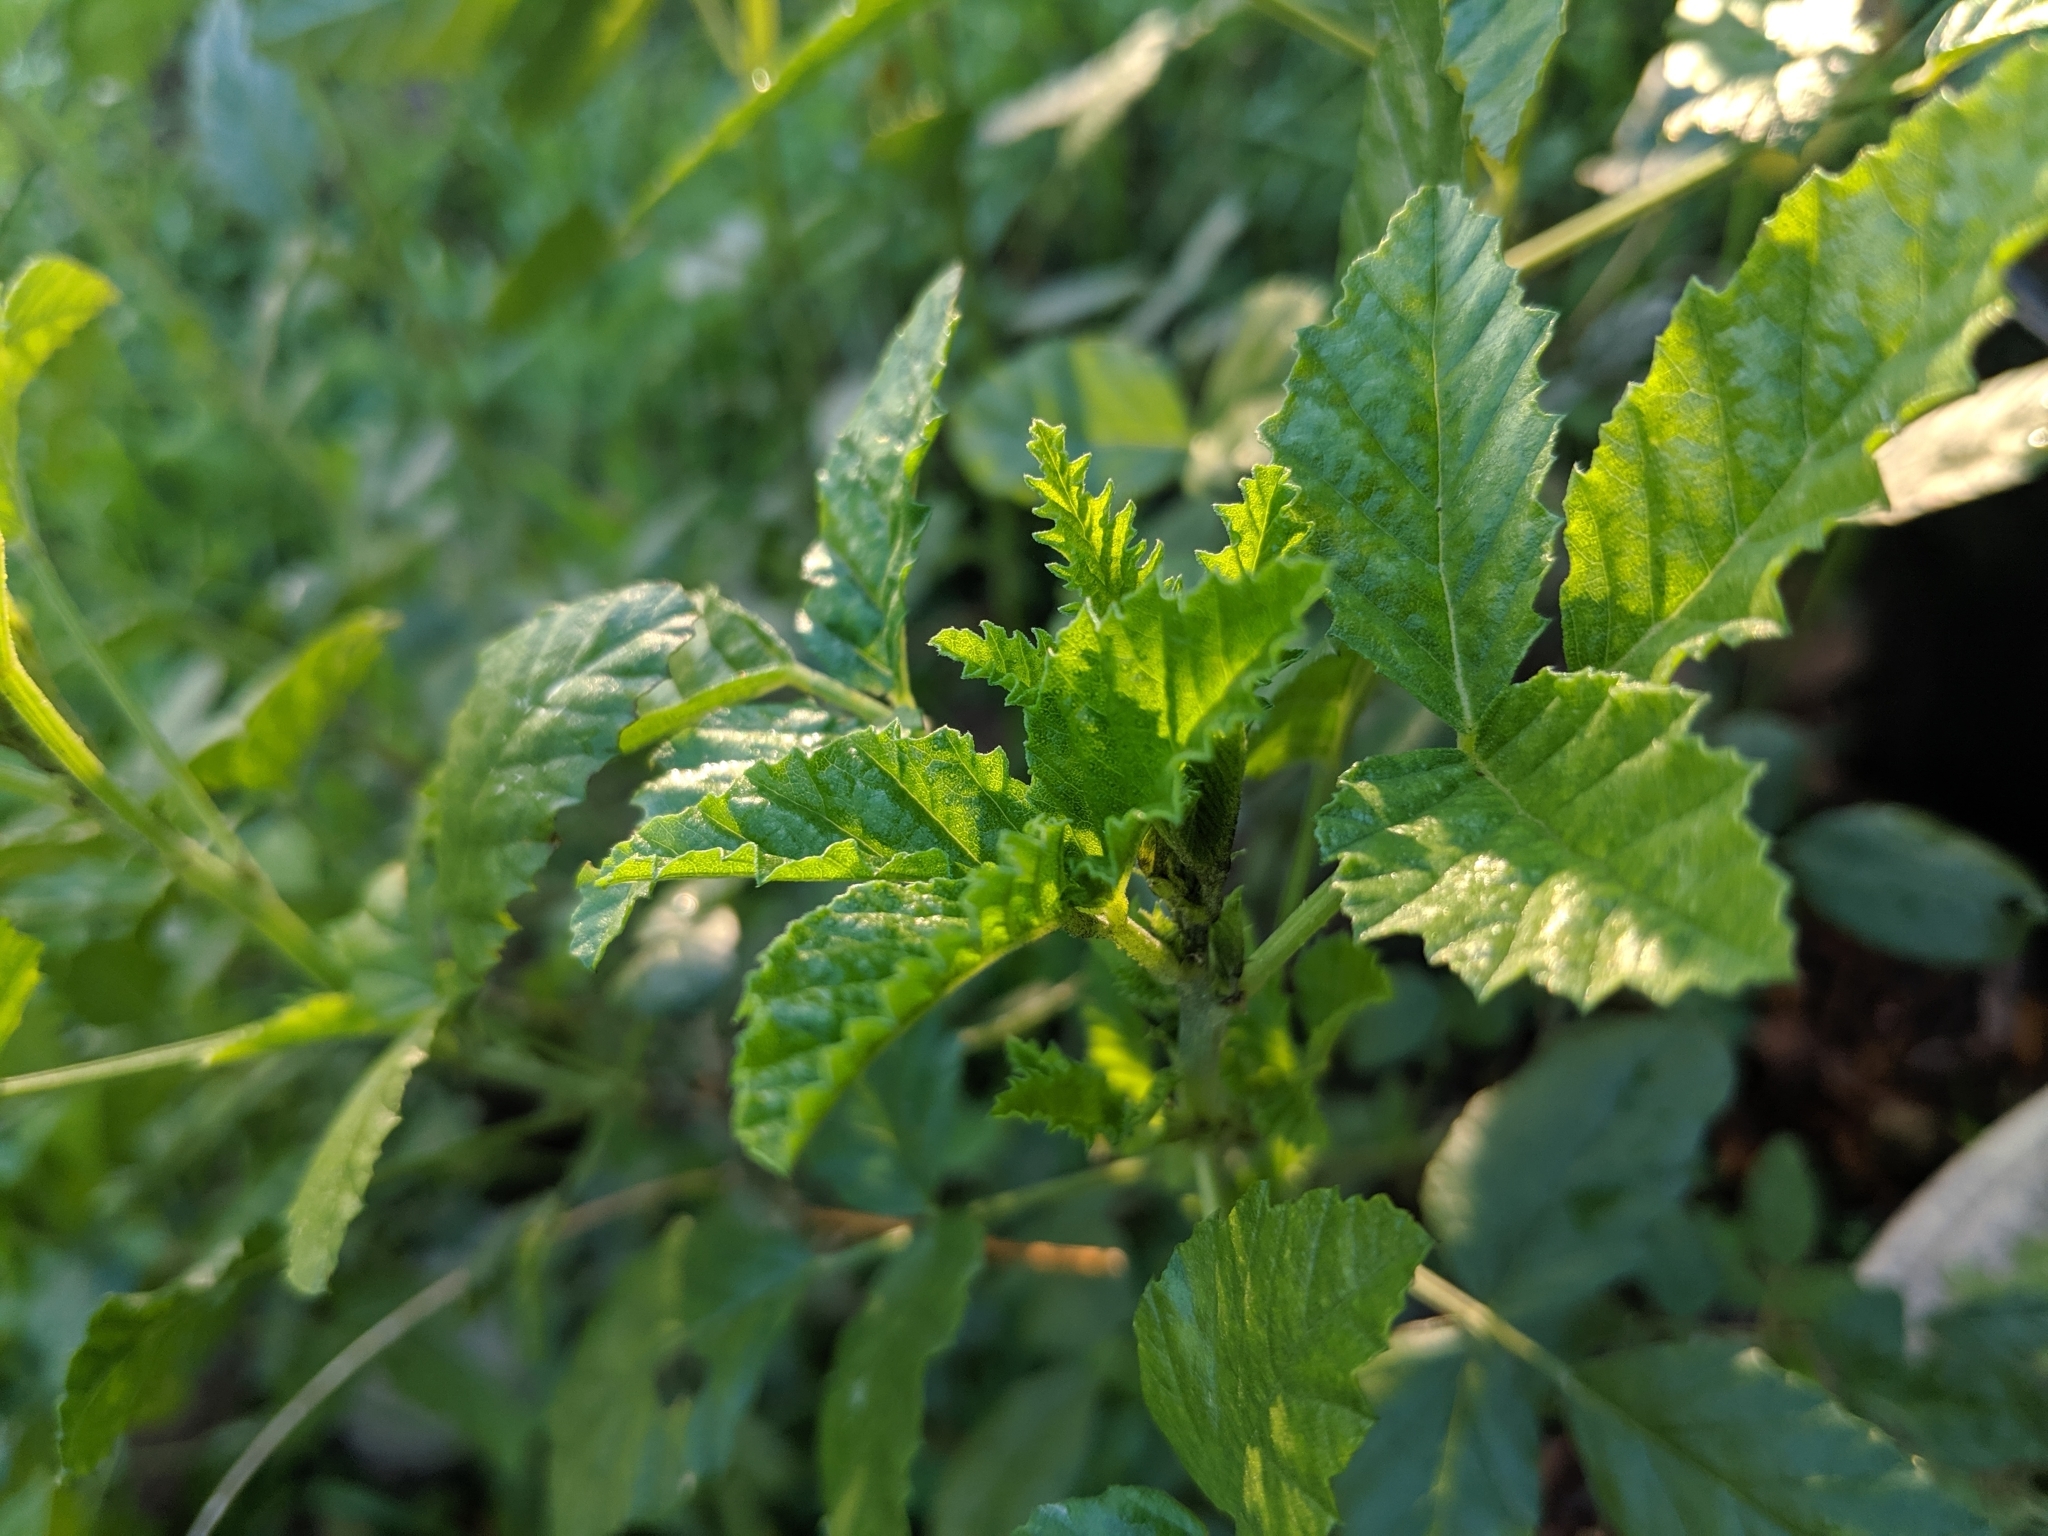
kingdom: Plantae
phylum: Tracheophyta
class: Magnoliopsida
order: Fabales
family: Fabaceae
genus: Cullen
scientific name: Cullen australasicum
